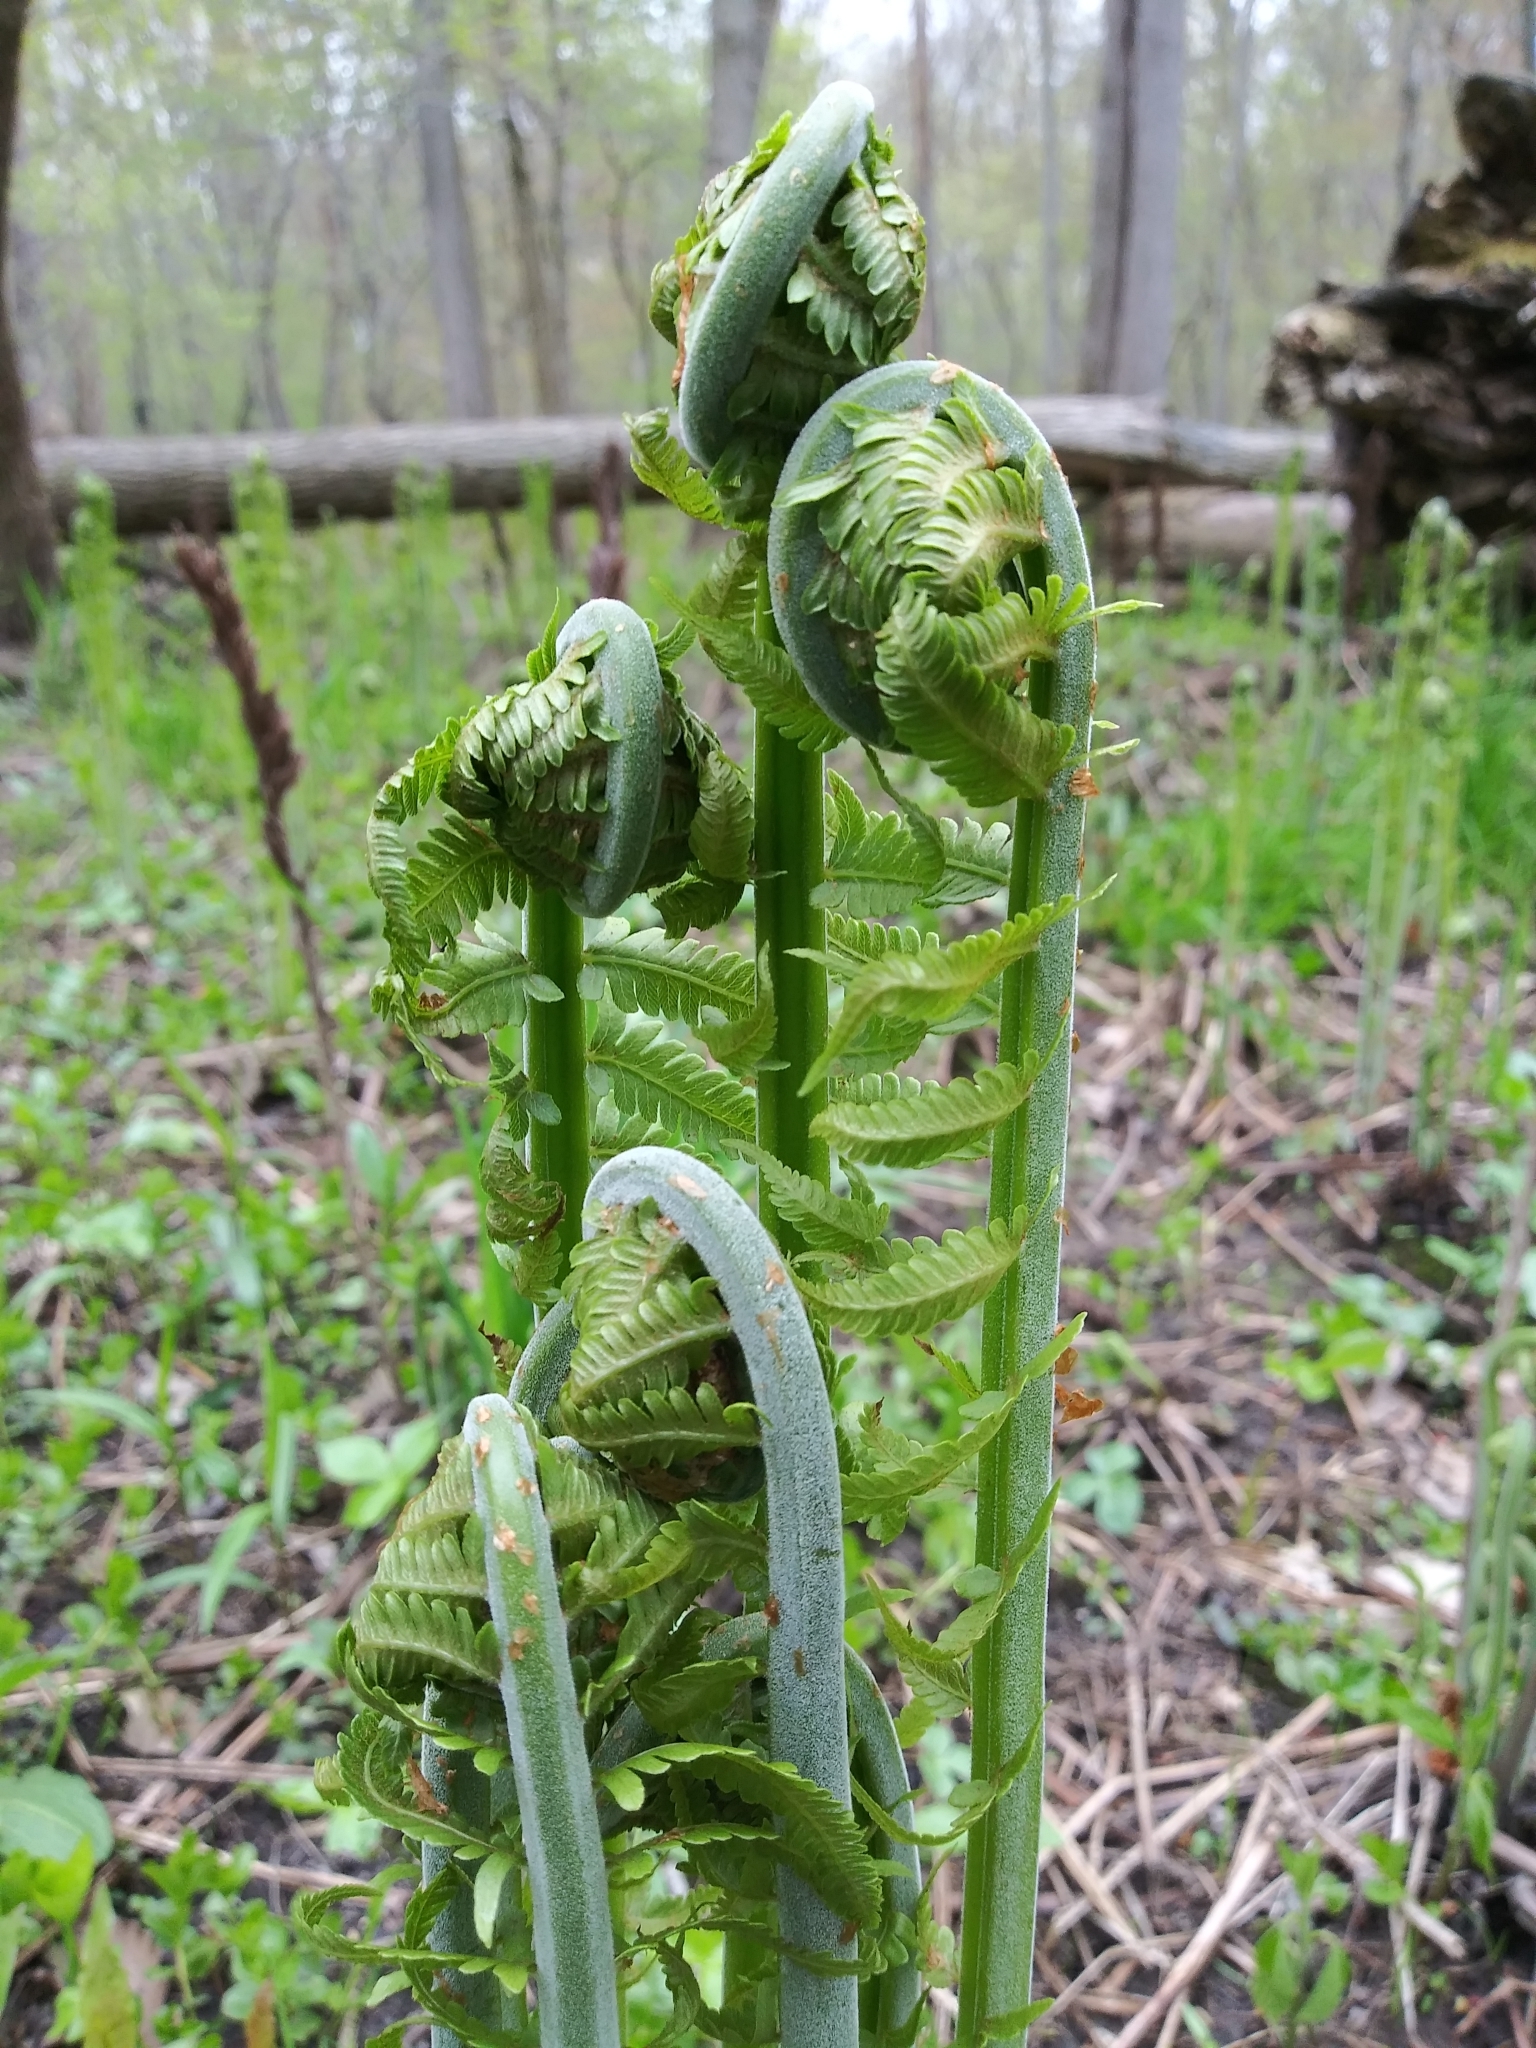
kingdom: Plantae
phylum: Tracheophyta
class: Polypodiopsida
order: Polypodiales
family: Onocleaceae
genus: Matteuccia
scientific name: Matteuccia pensylvanica
